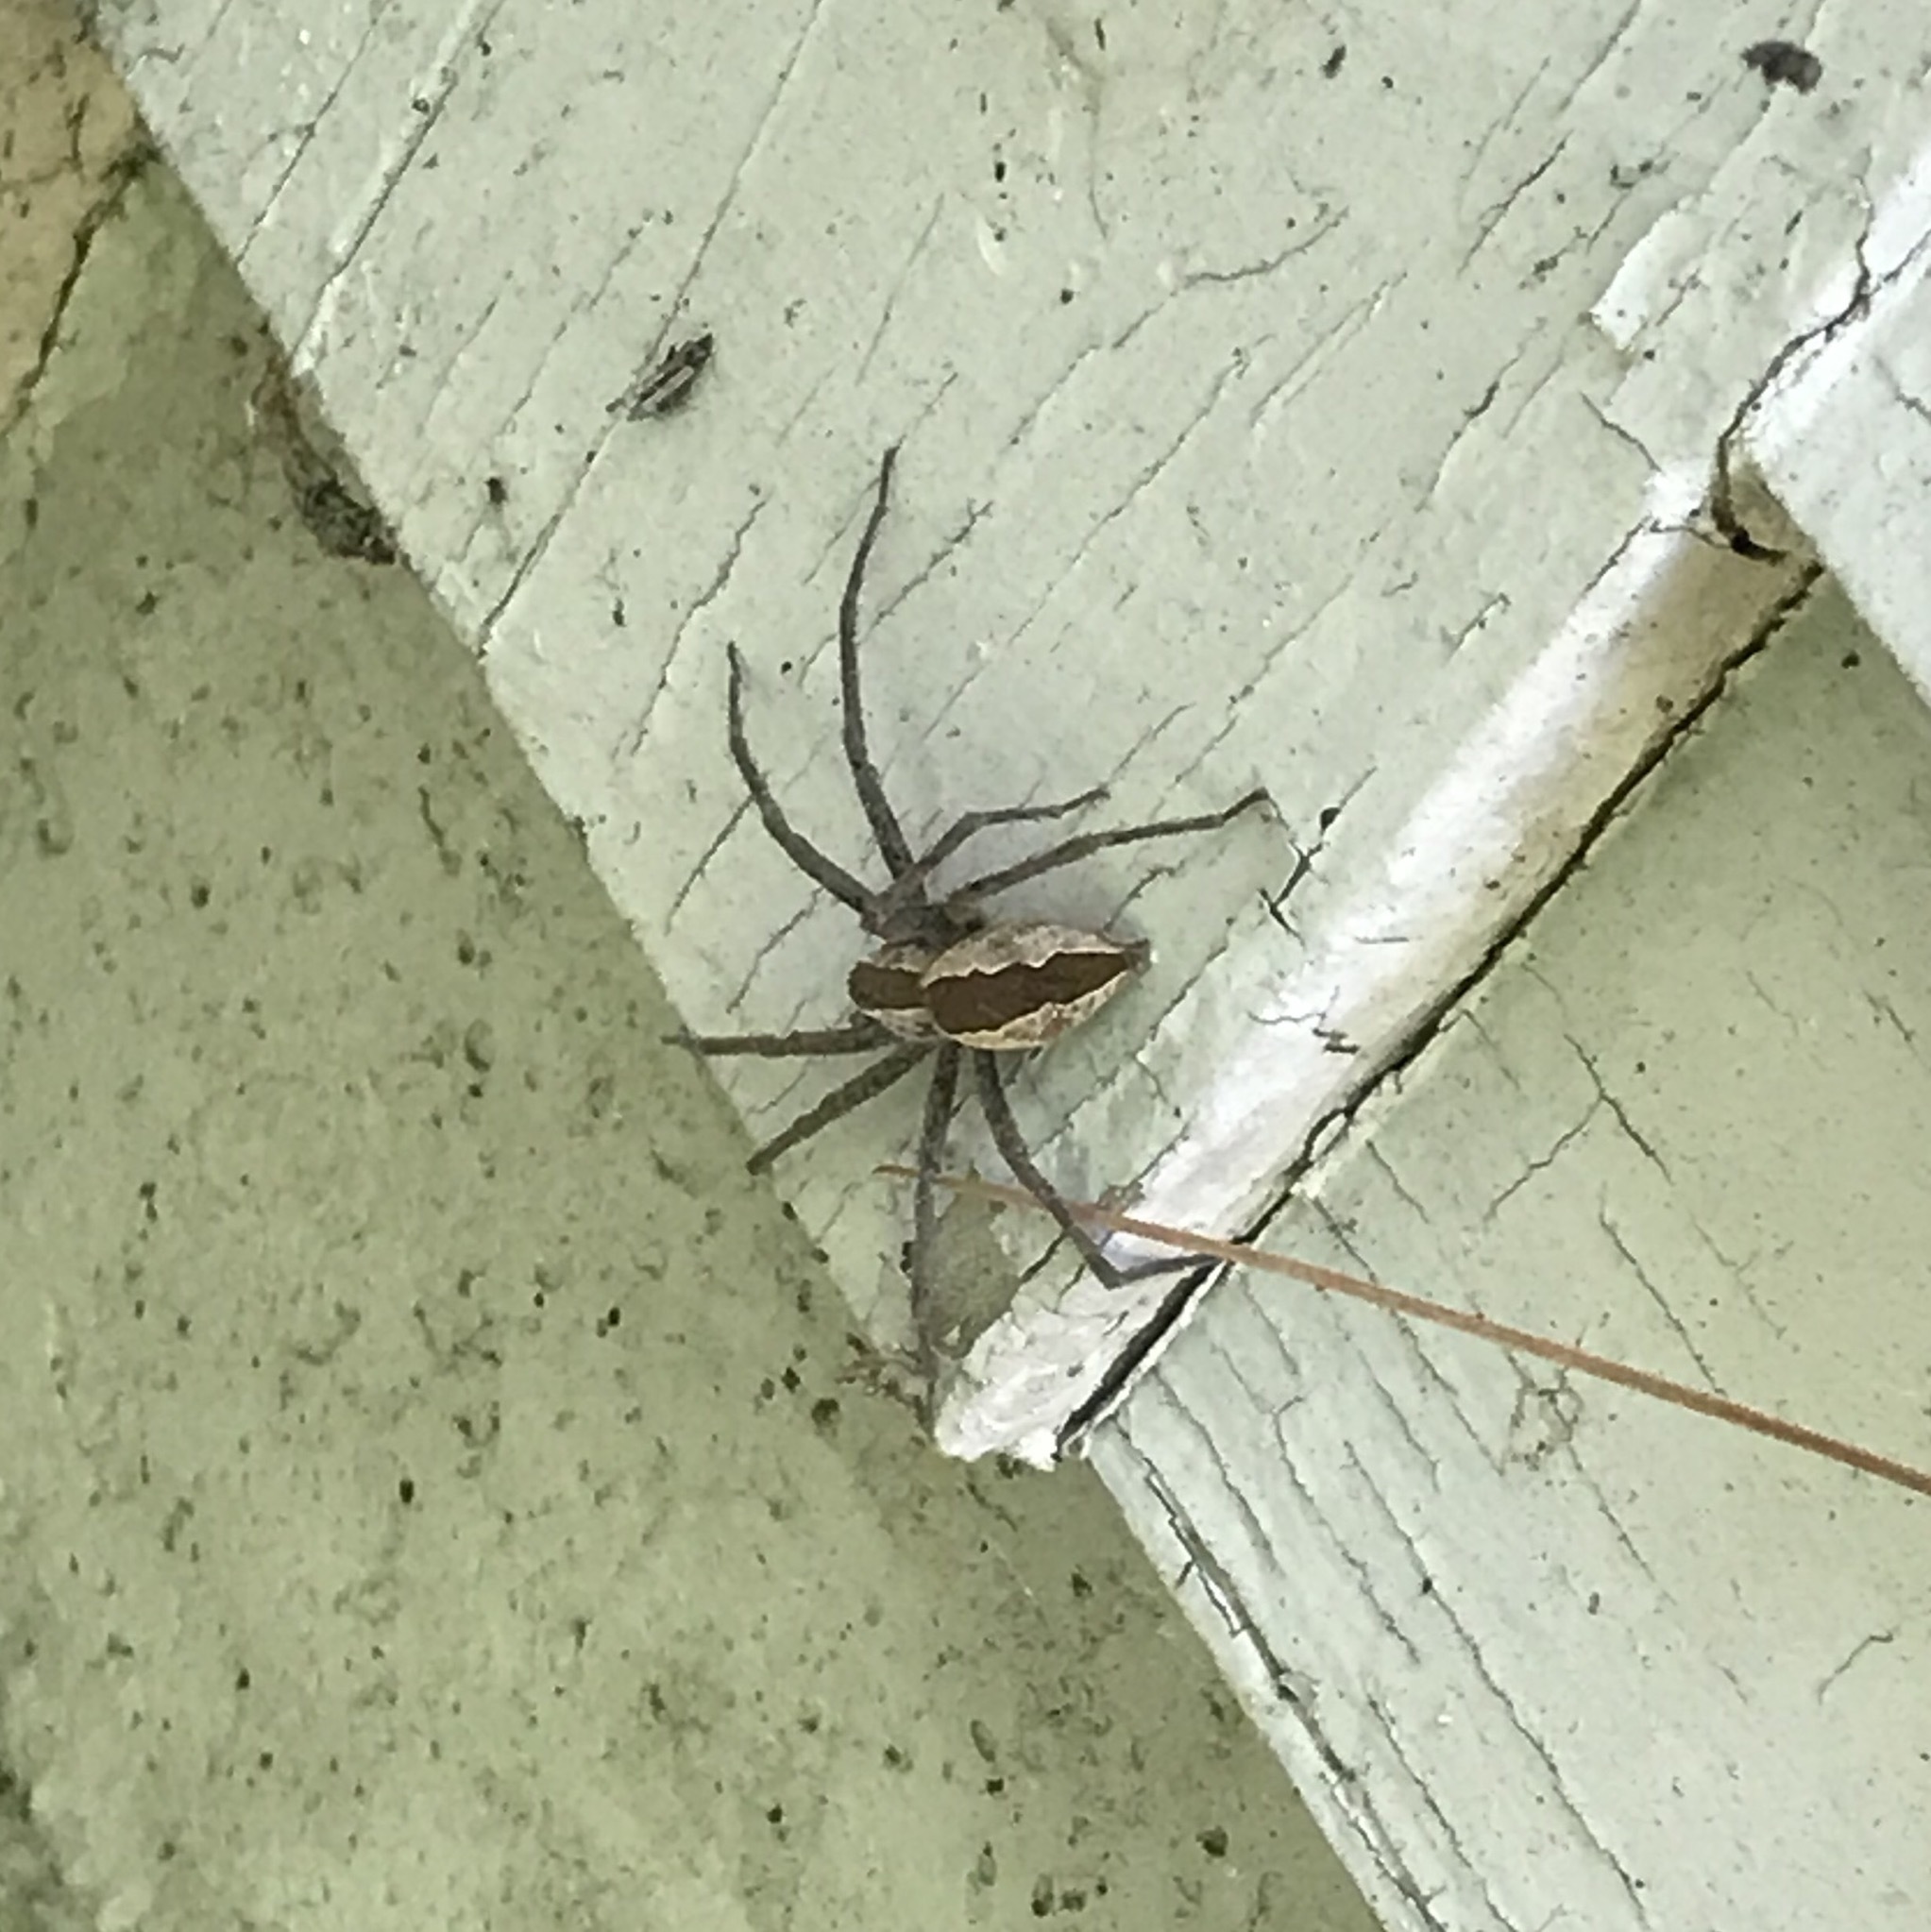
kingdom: Animalia
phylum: Arthropoda
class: Arachnida
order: Araneae
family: Pisauridae
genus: Pisaurina
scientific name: Pisaurina mira
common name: American nursery web spider
